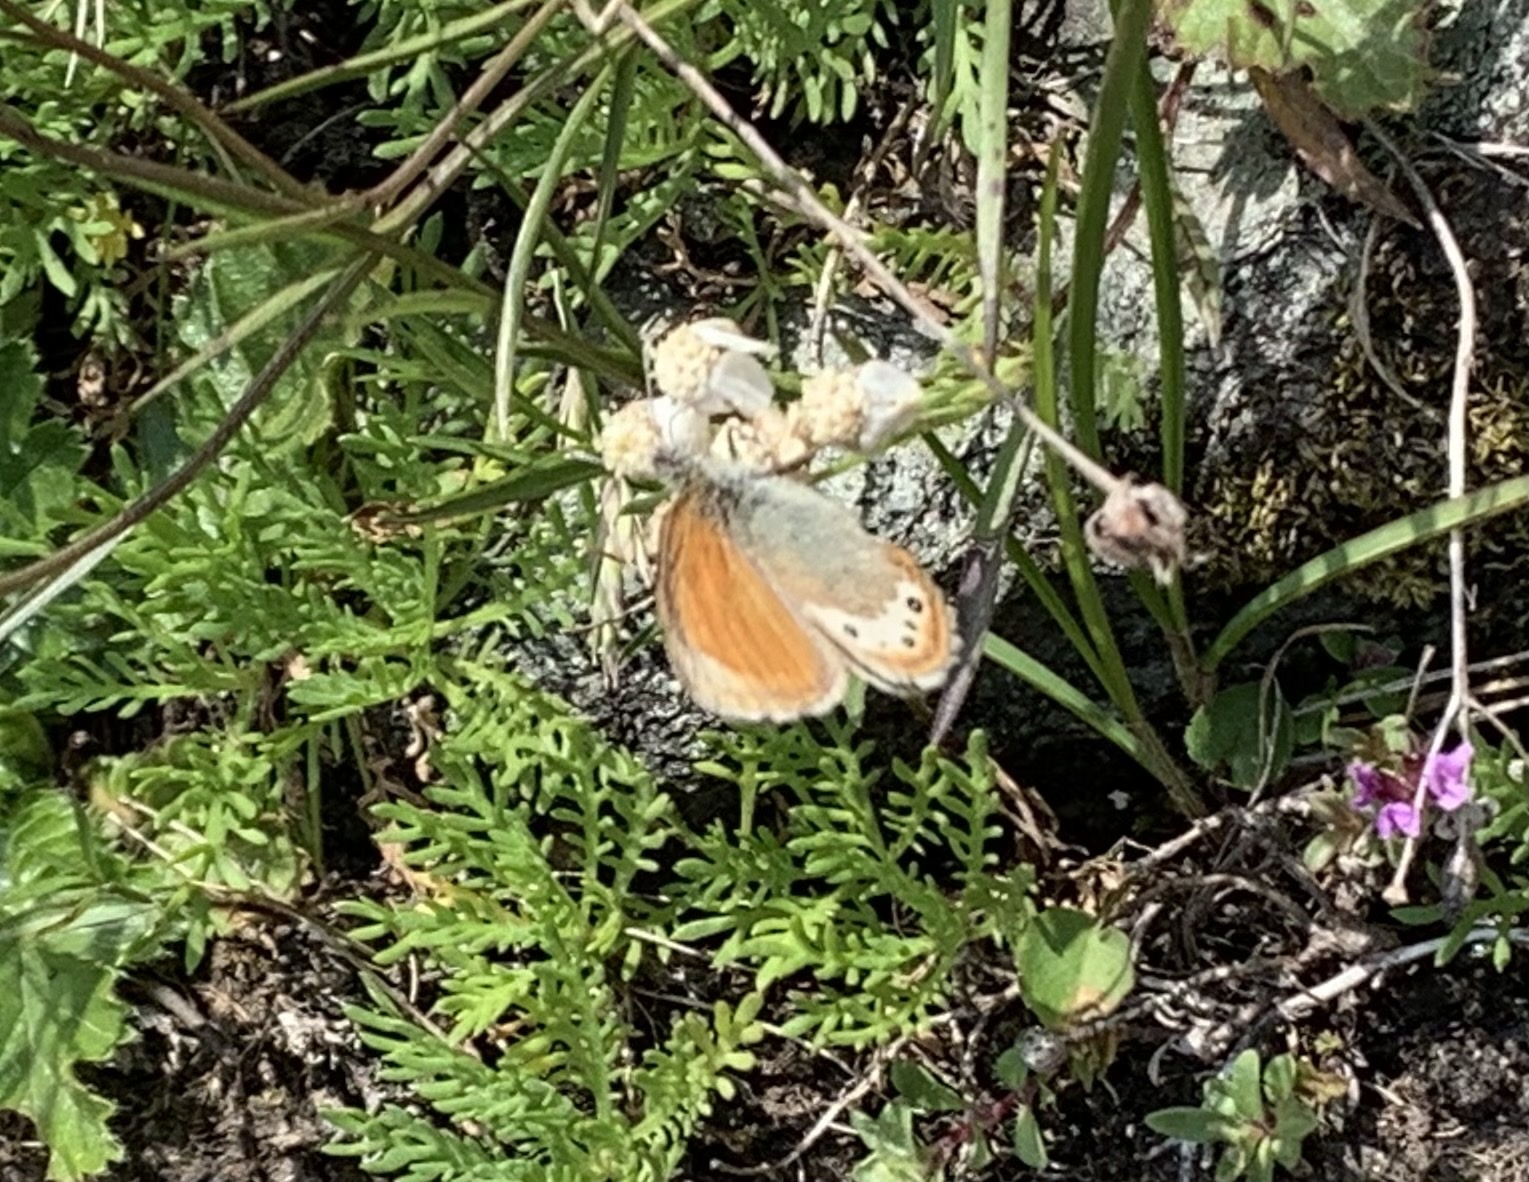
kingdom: Animalia
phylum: Arthropoda
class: Insecta
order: Lepidoptera
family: Nymphalidae
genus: Coenonympha
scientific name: Coenonympha
